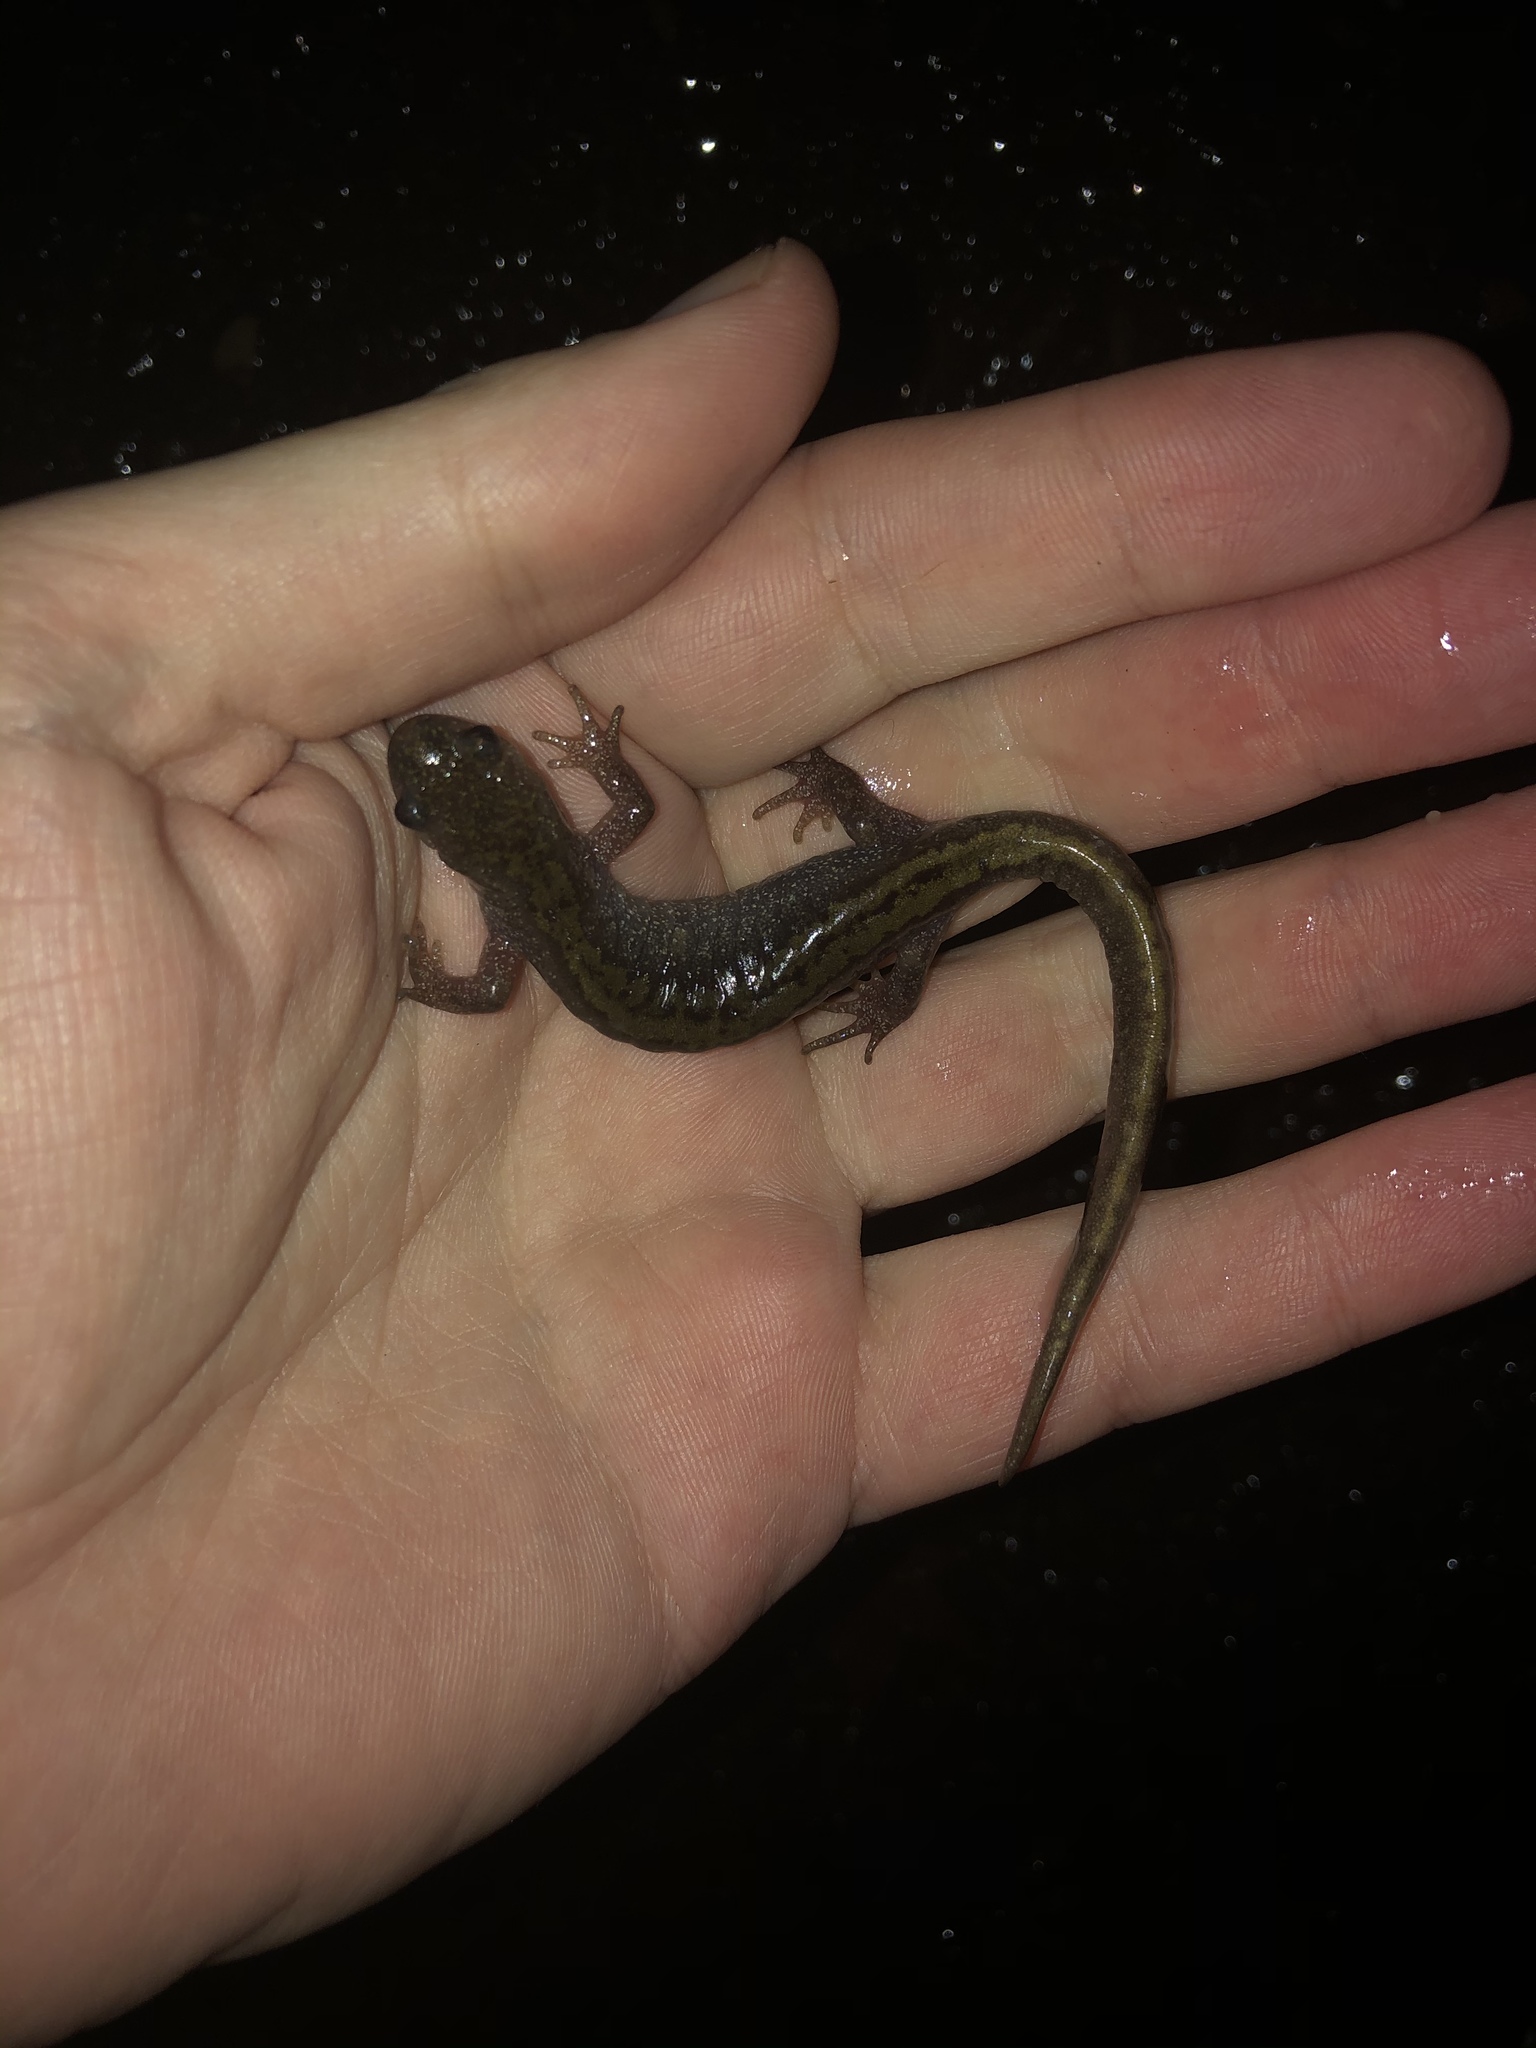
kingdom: Animalia
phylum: Chordata
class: Amphibia
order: Caudata
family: Ambystomatidae
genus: Ambystoma
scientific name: Ambystoma macrodactylum
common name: Long-toed salamander
